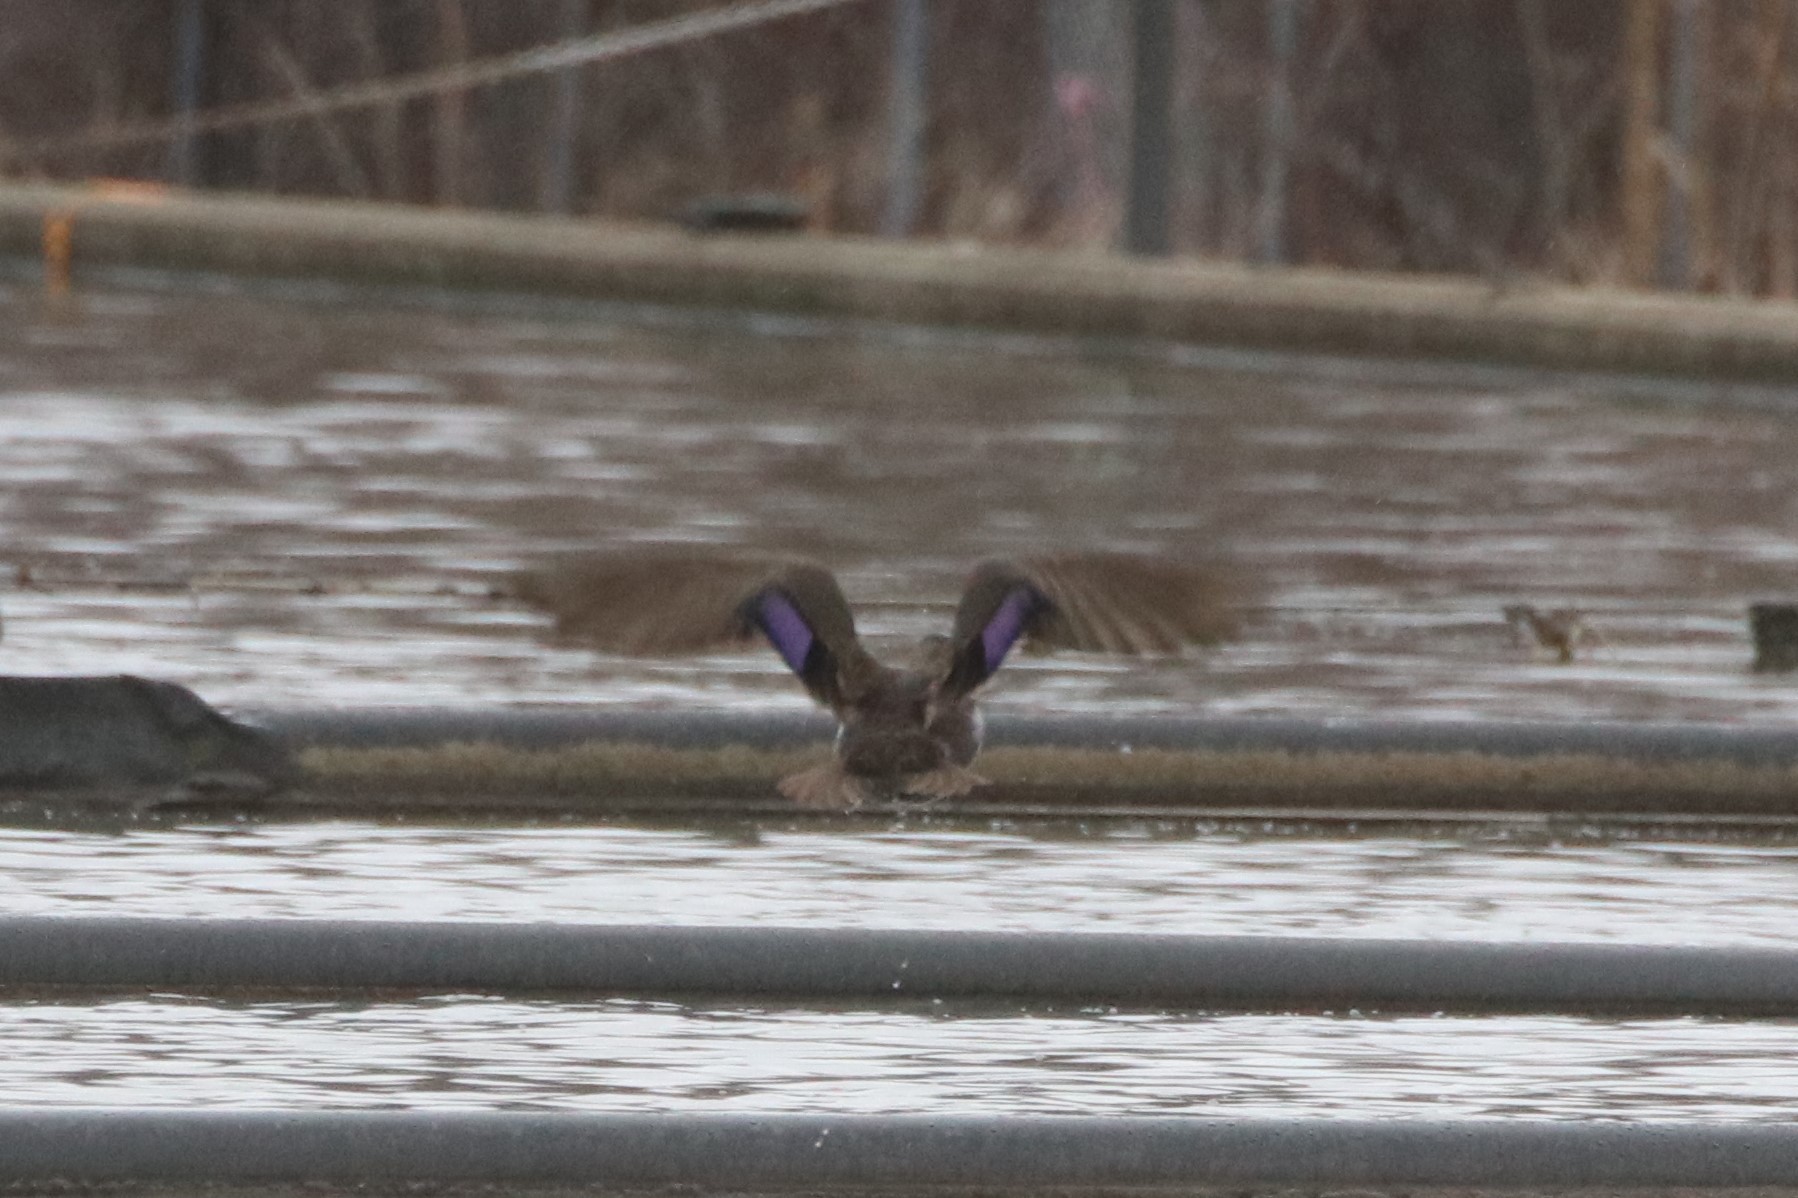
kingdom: Animalia
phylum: Chordata
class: Aves
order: Anseriformes
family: Anatidae
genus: Anas
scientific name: Anas rubripes
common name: American black duck
